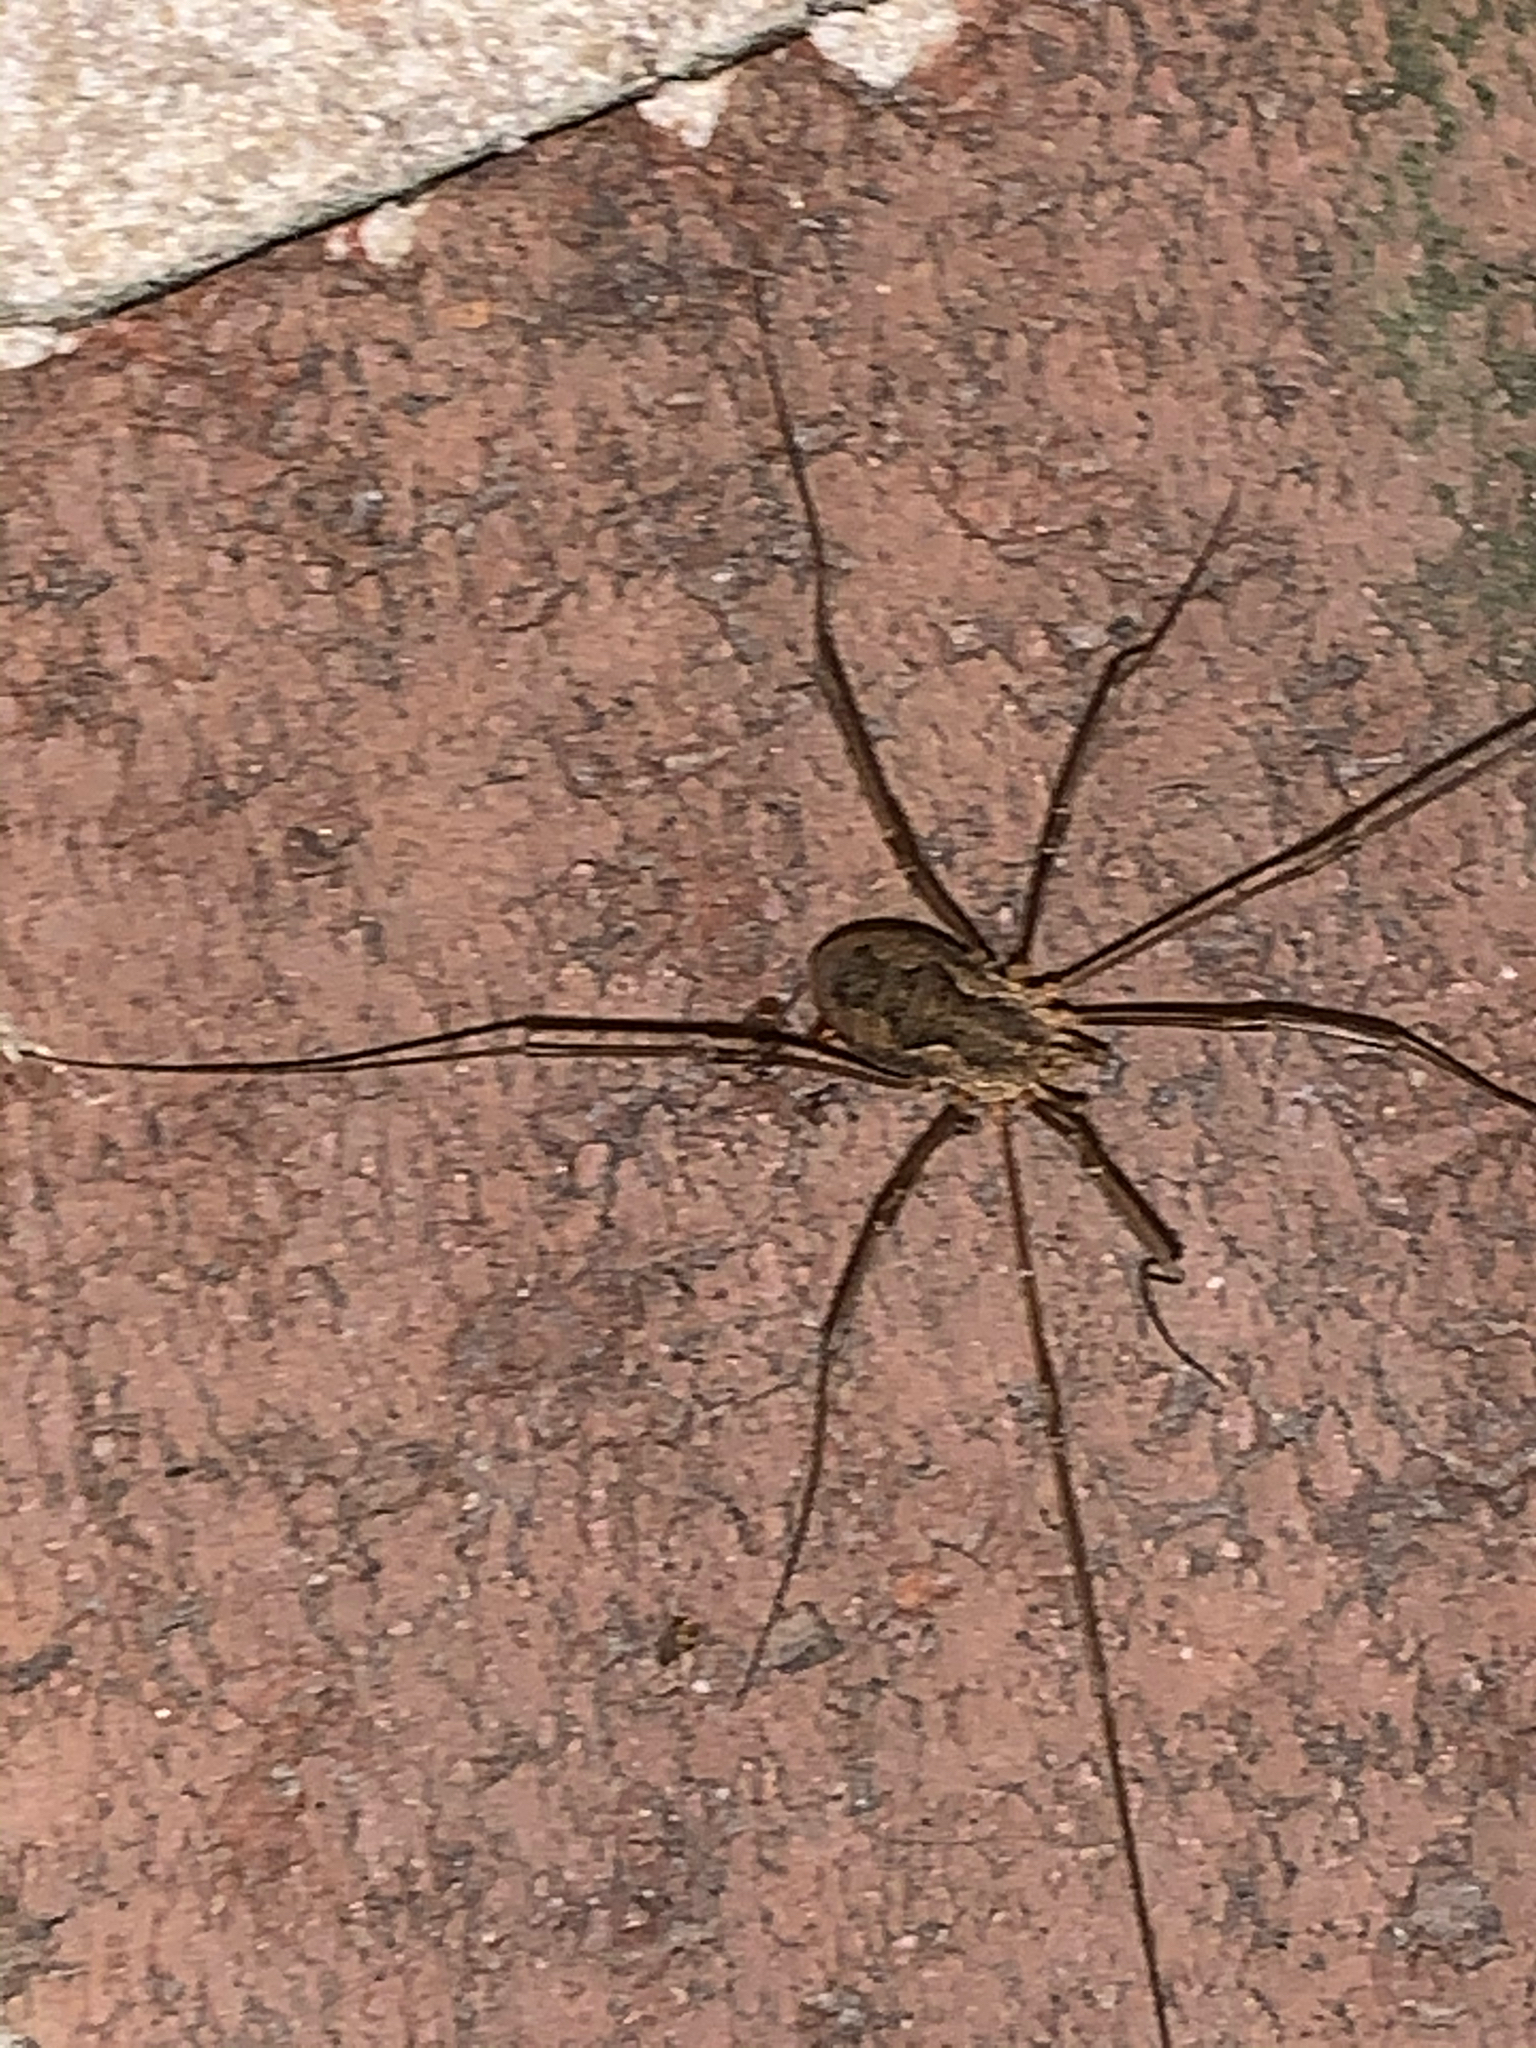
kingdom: Animalia
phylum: Arthropoda
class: Arachnida
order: Opiliones
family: Phalangiidae
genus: Phalangium
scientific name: Phalangium opilio
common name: Daddy longleg
